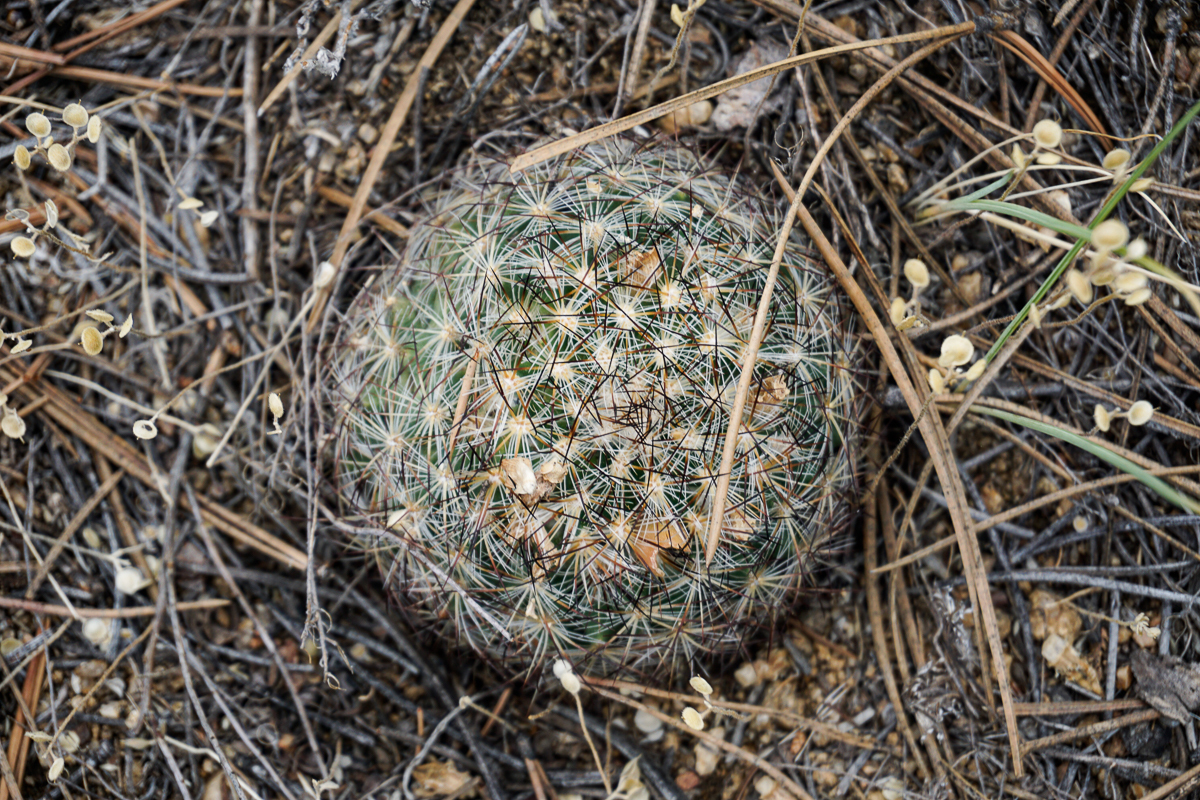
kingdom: Plantae
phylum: Tracheophyta
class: Magnoliopsida
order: Caryophyllales
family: Cactaceae
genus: Pediocactus
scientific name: Pediocactus simpsonii
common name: Simpson's hedgehog cactus
